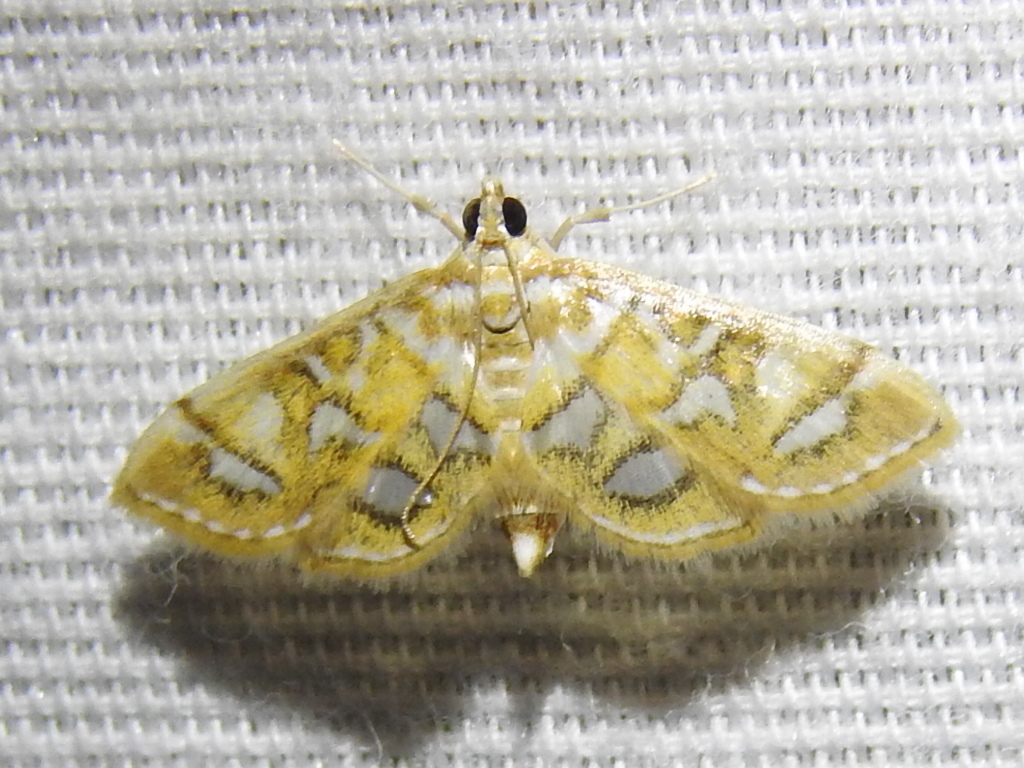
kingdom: Animalia
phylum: Arthropoda
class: Insecta
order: Lepidoptera
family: Crambidae
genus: Pseudopyrausta
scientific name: Pseudopyrausta marginalis
